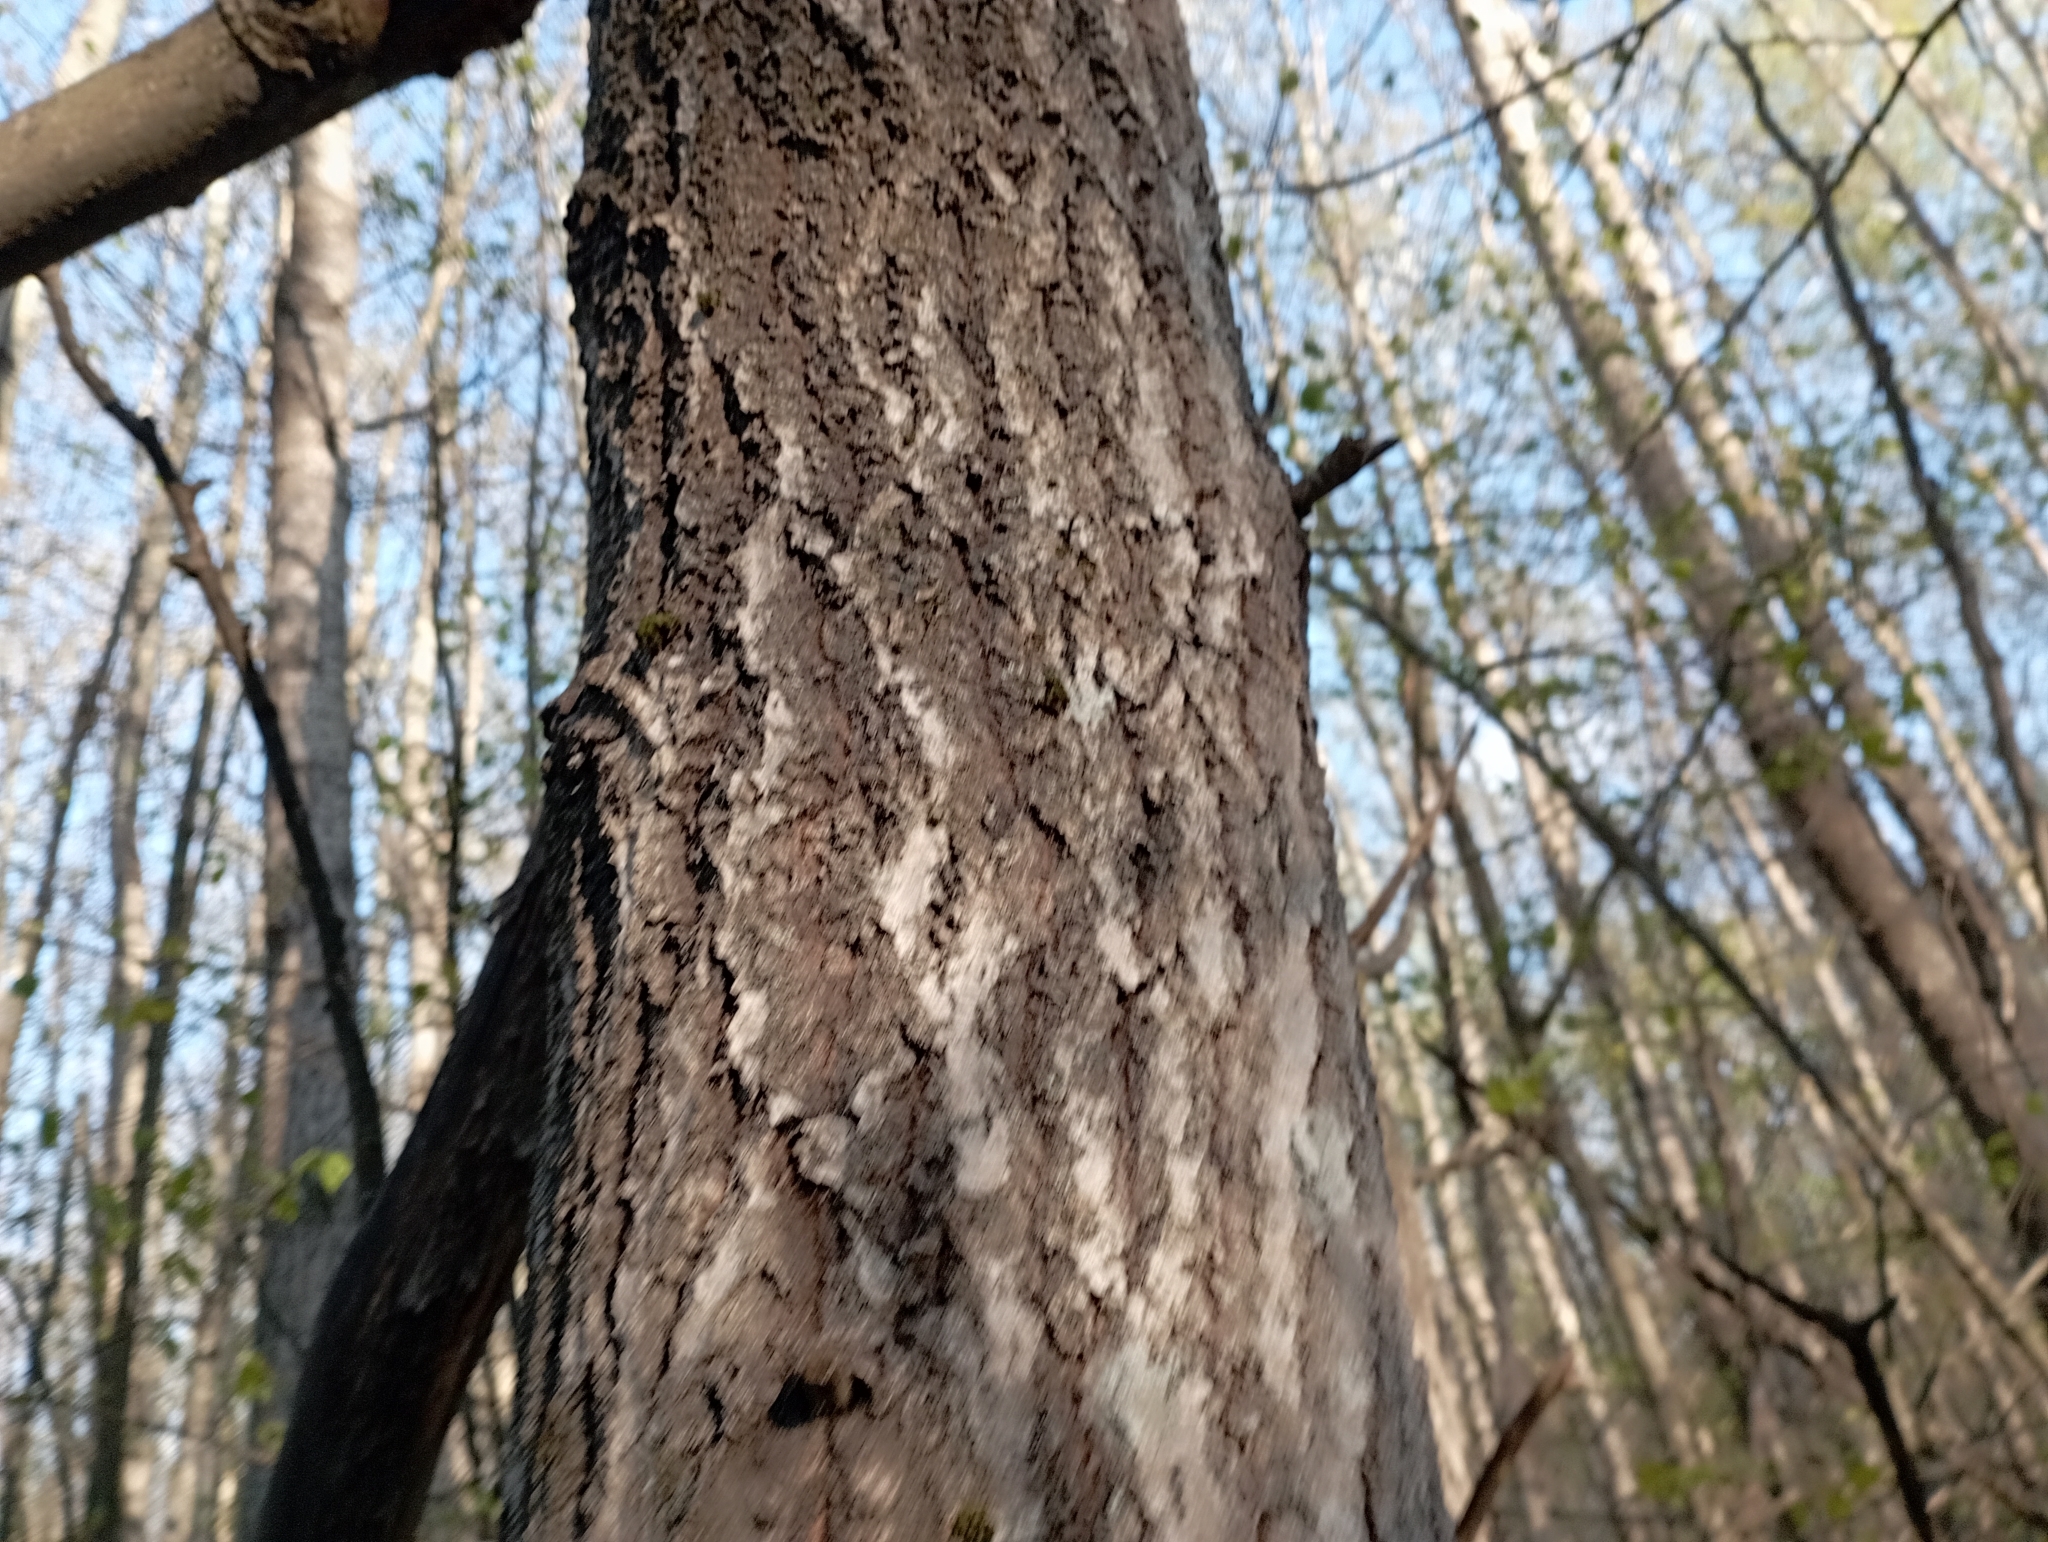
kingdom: Plantae
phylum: Tracheophyta
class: Magnoliopsida
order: Malpighiales
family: Salicaceae
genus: Populus
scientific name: Populus tremula
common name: European aspen
